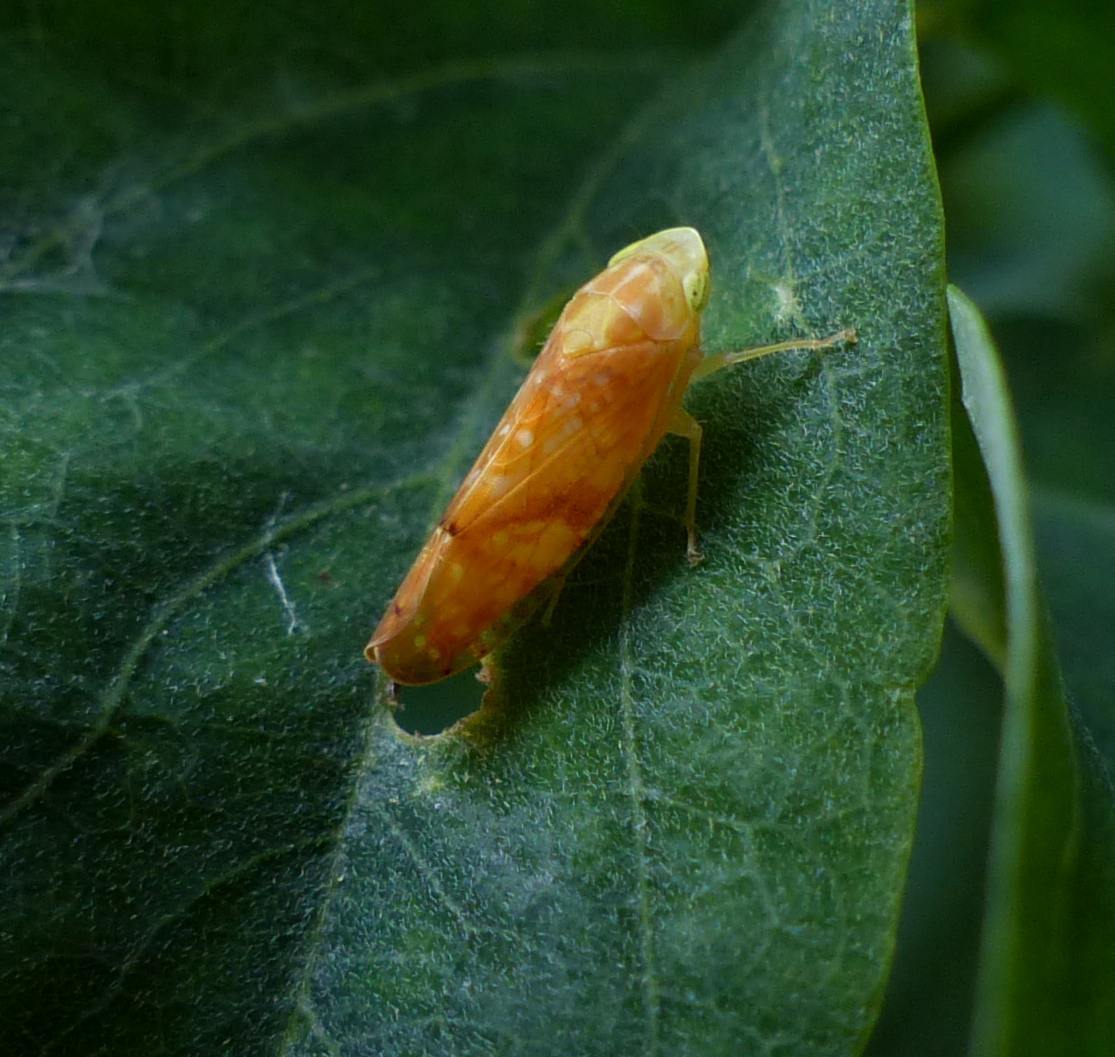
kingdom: Animalia
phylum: Arthropoda
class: Insecta
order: Hemiptera
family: Cicadellidae
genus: Fitchana
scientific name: Fitchana vitellina
